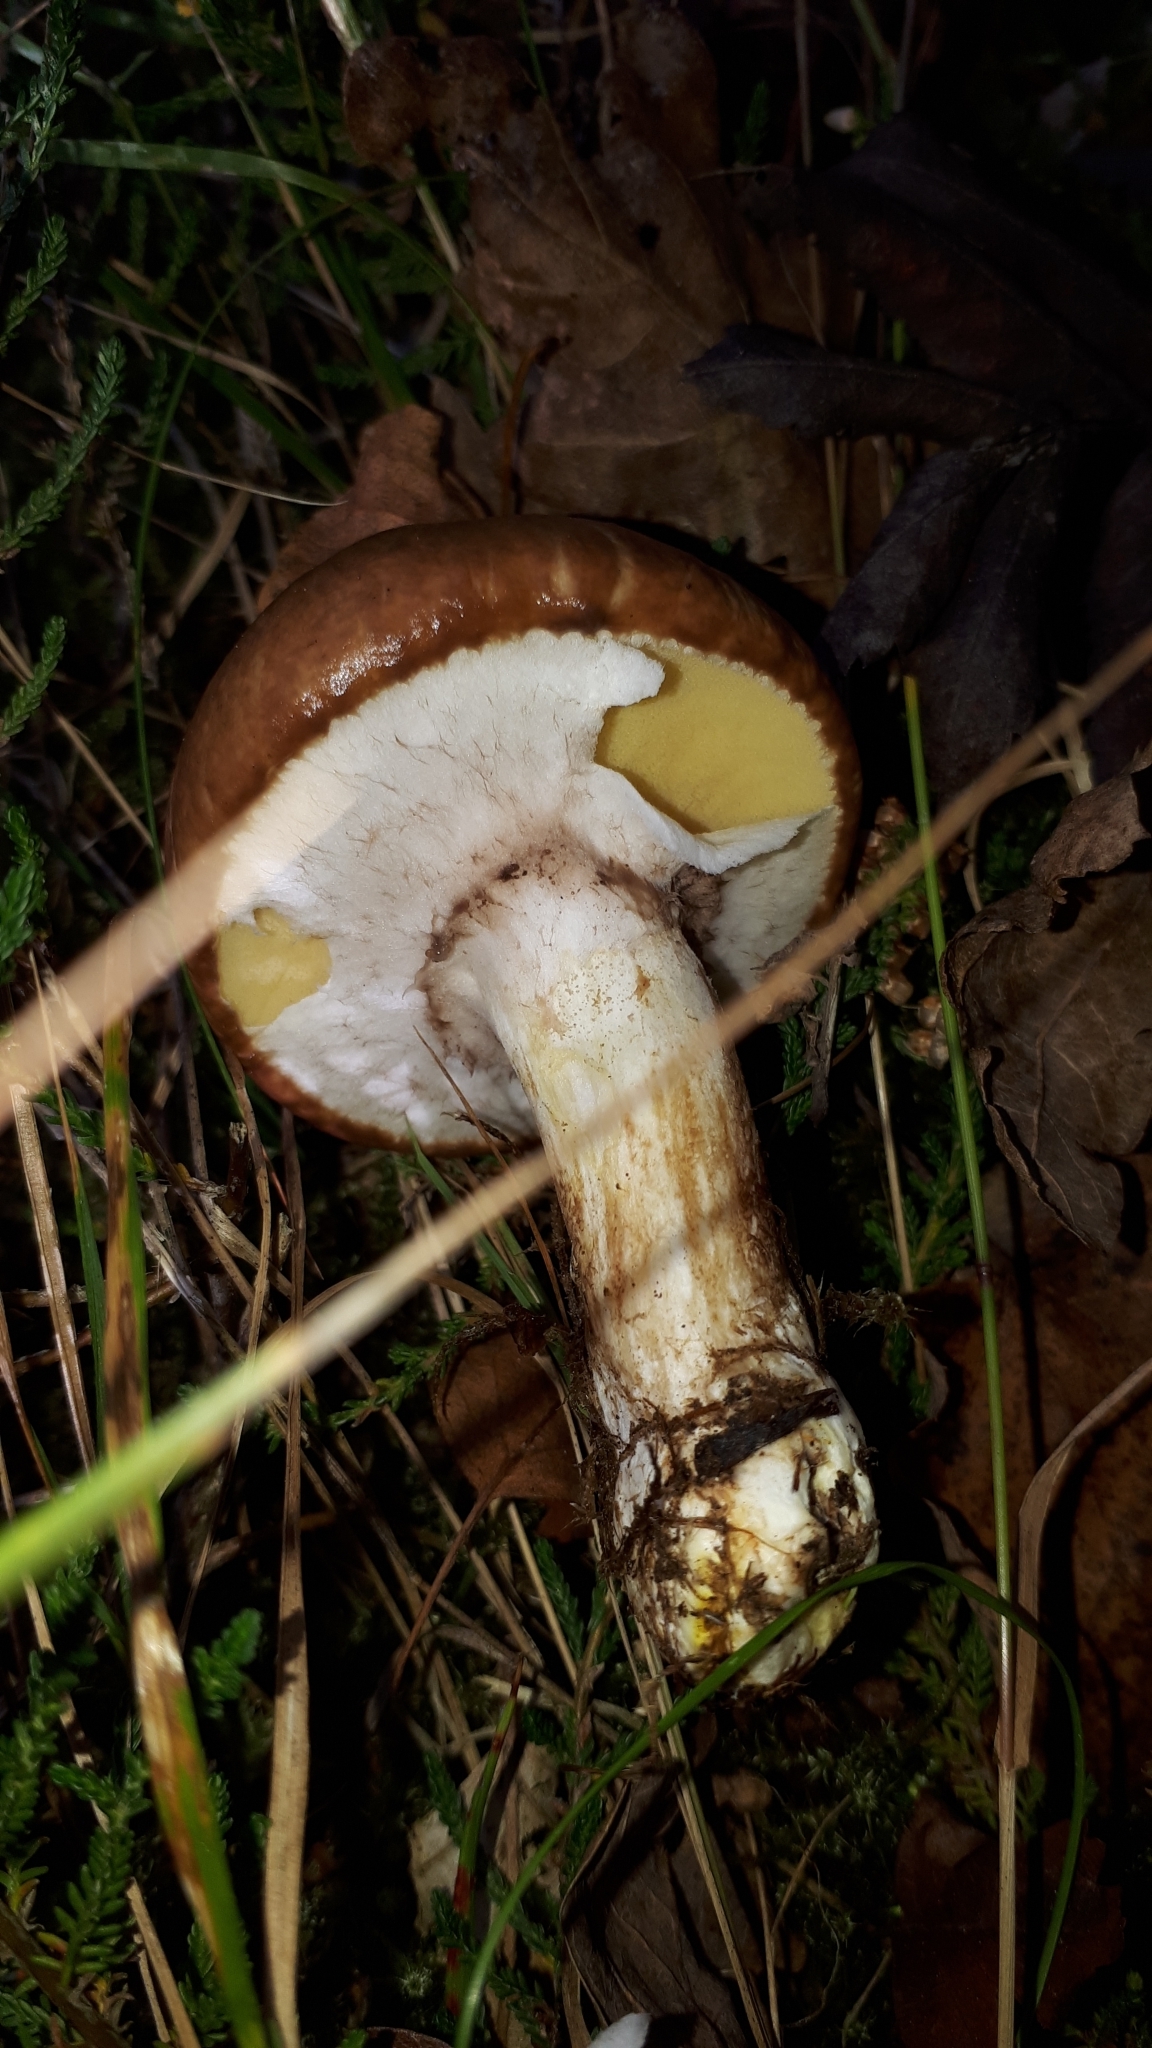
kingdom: Fungi
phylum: Basidiomycota
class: Agaricomycetes
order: Boletales
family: Suillaceae
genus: Suillus
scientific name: Suillus luteus
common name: Slippery jack
